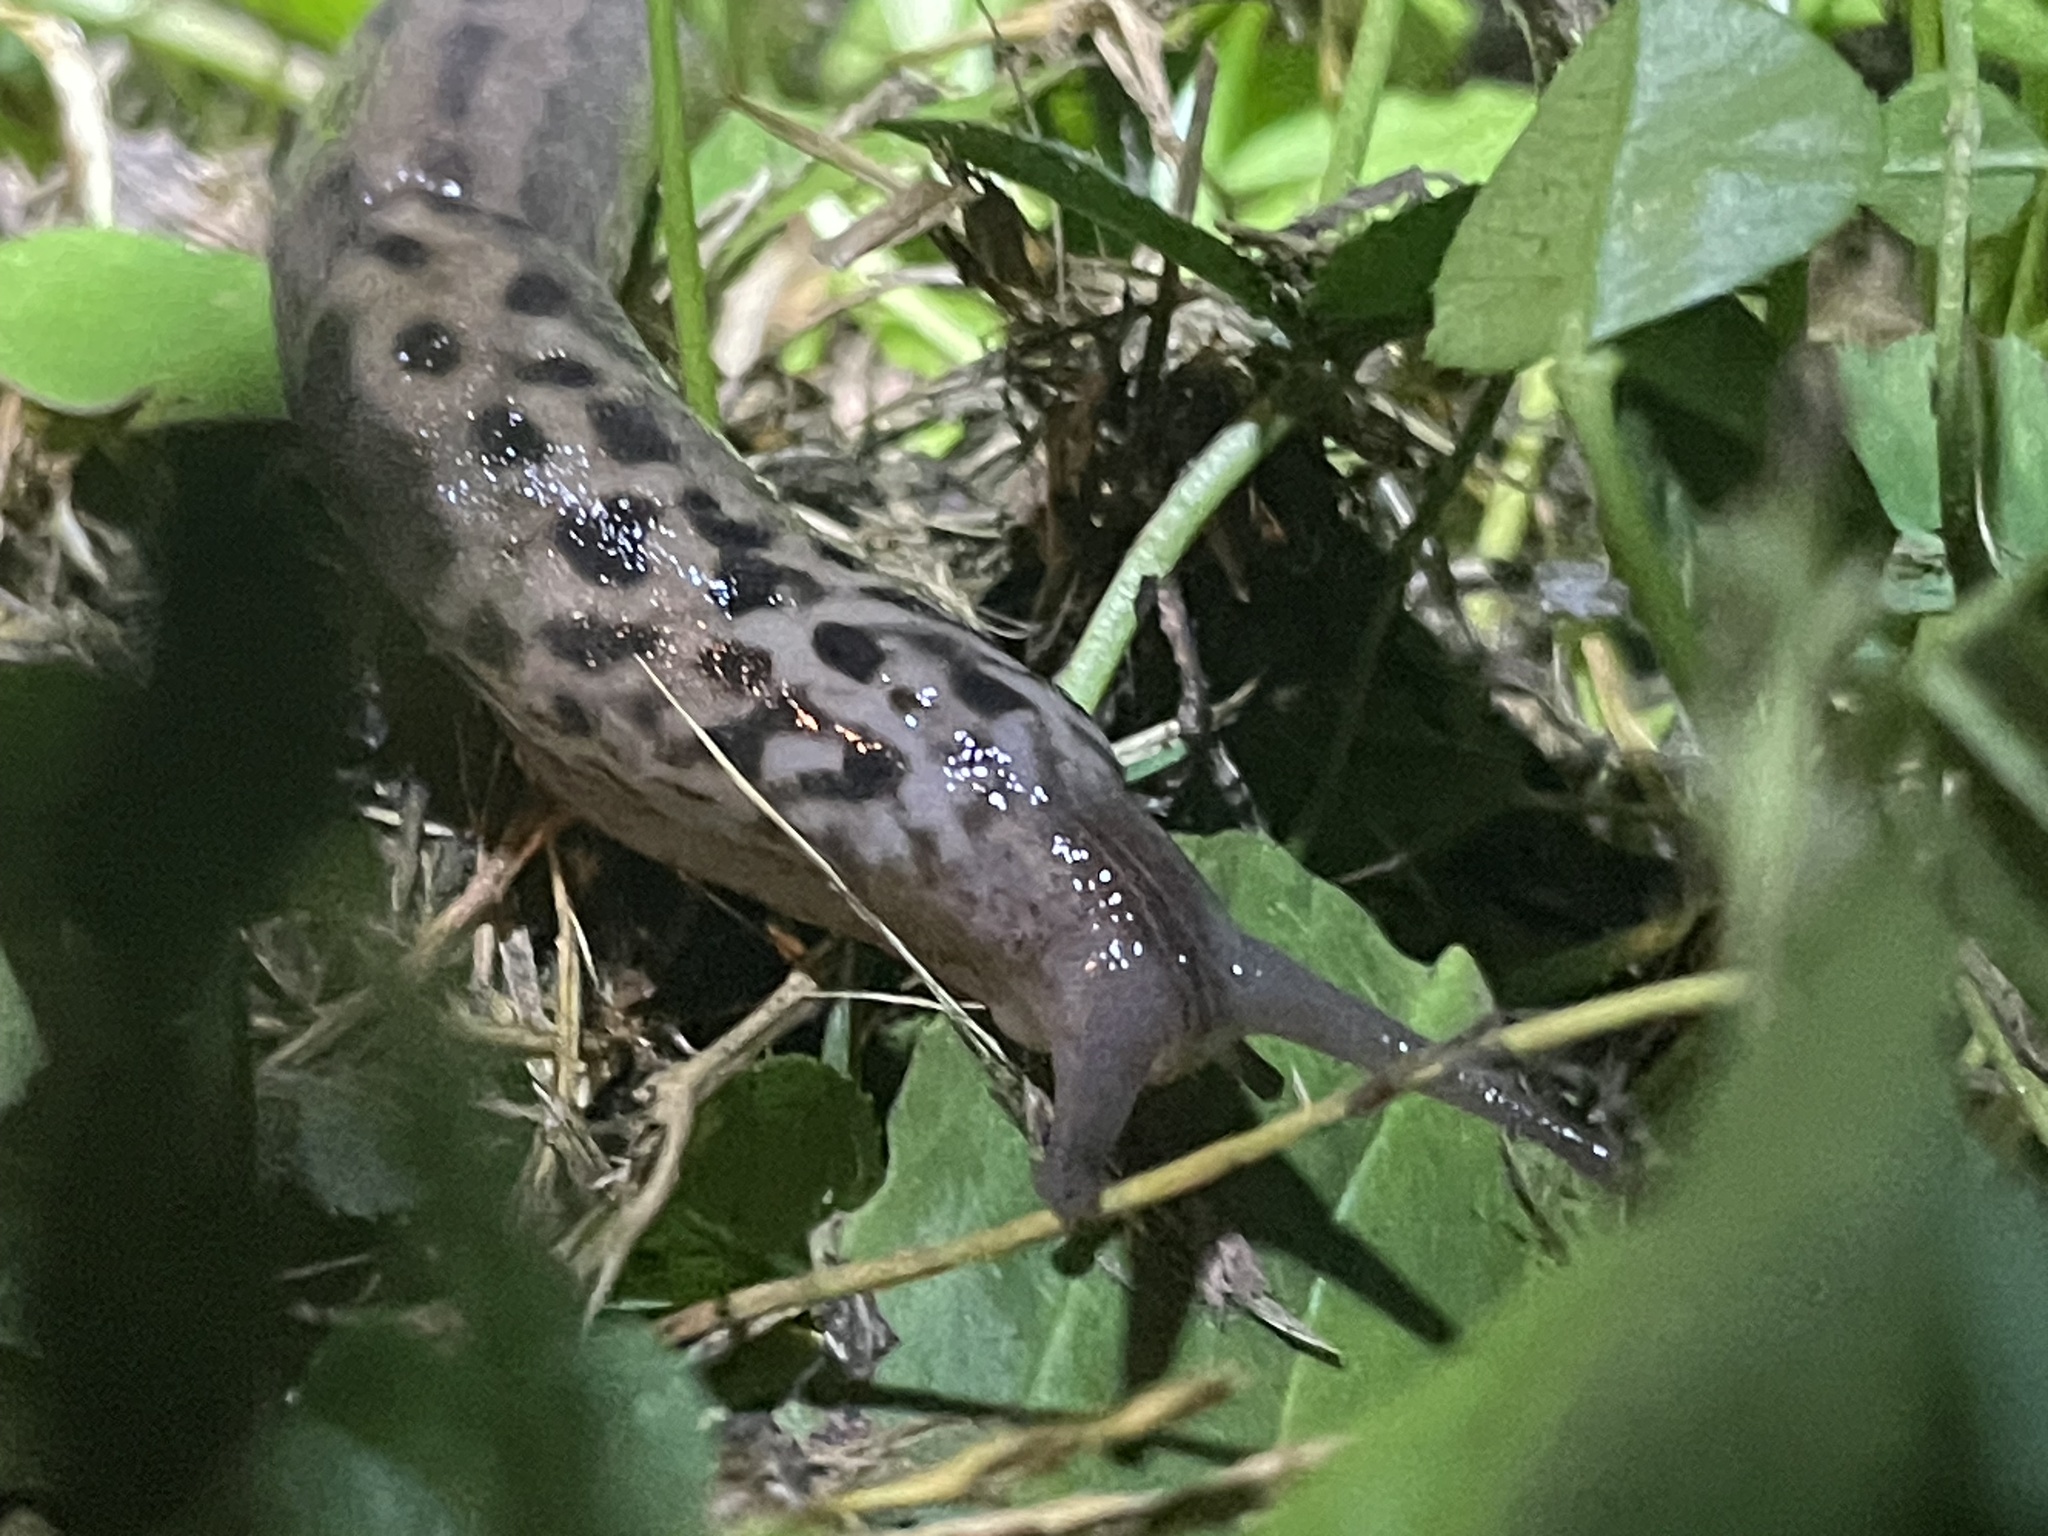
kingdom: Animalia
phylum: Mollusca
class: Gastropoda
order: Stylommatophora
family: Limacidae
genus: Limax
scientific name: Limax maximus
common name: Great grey slug
